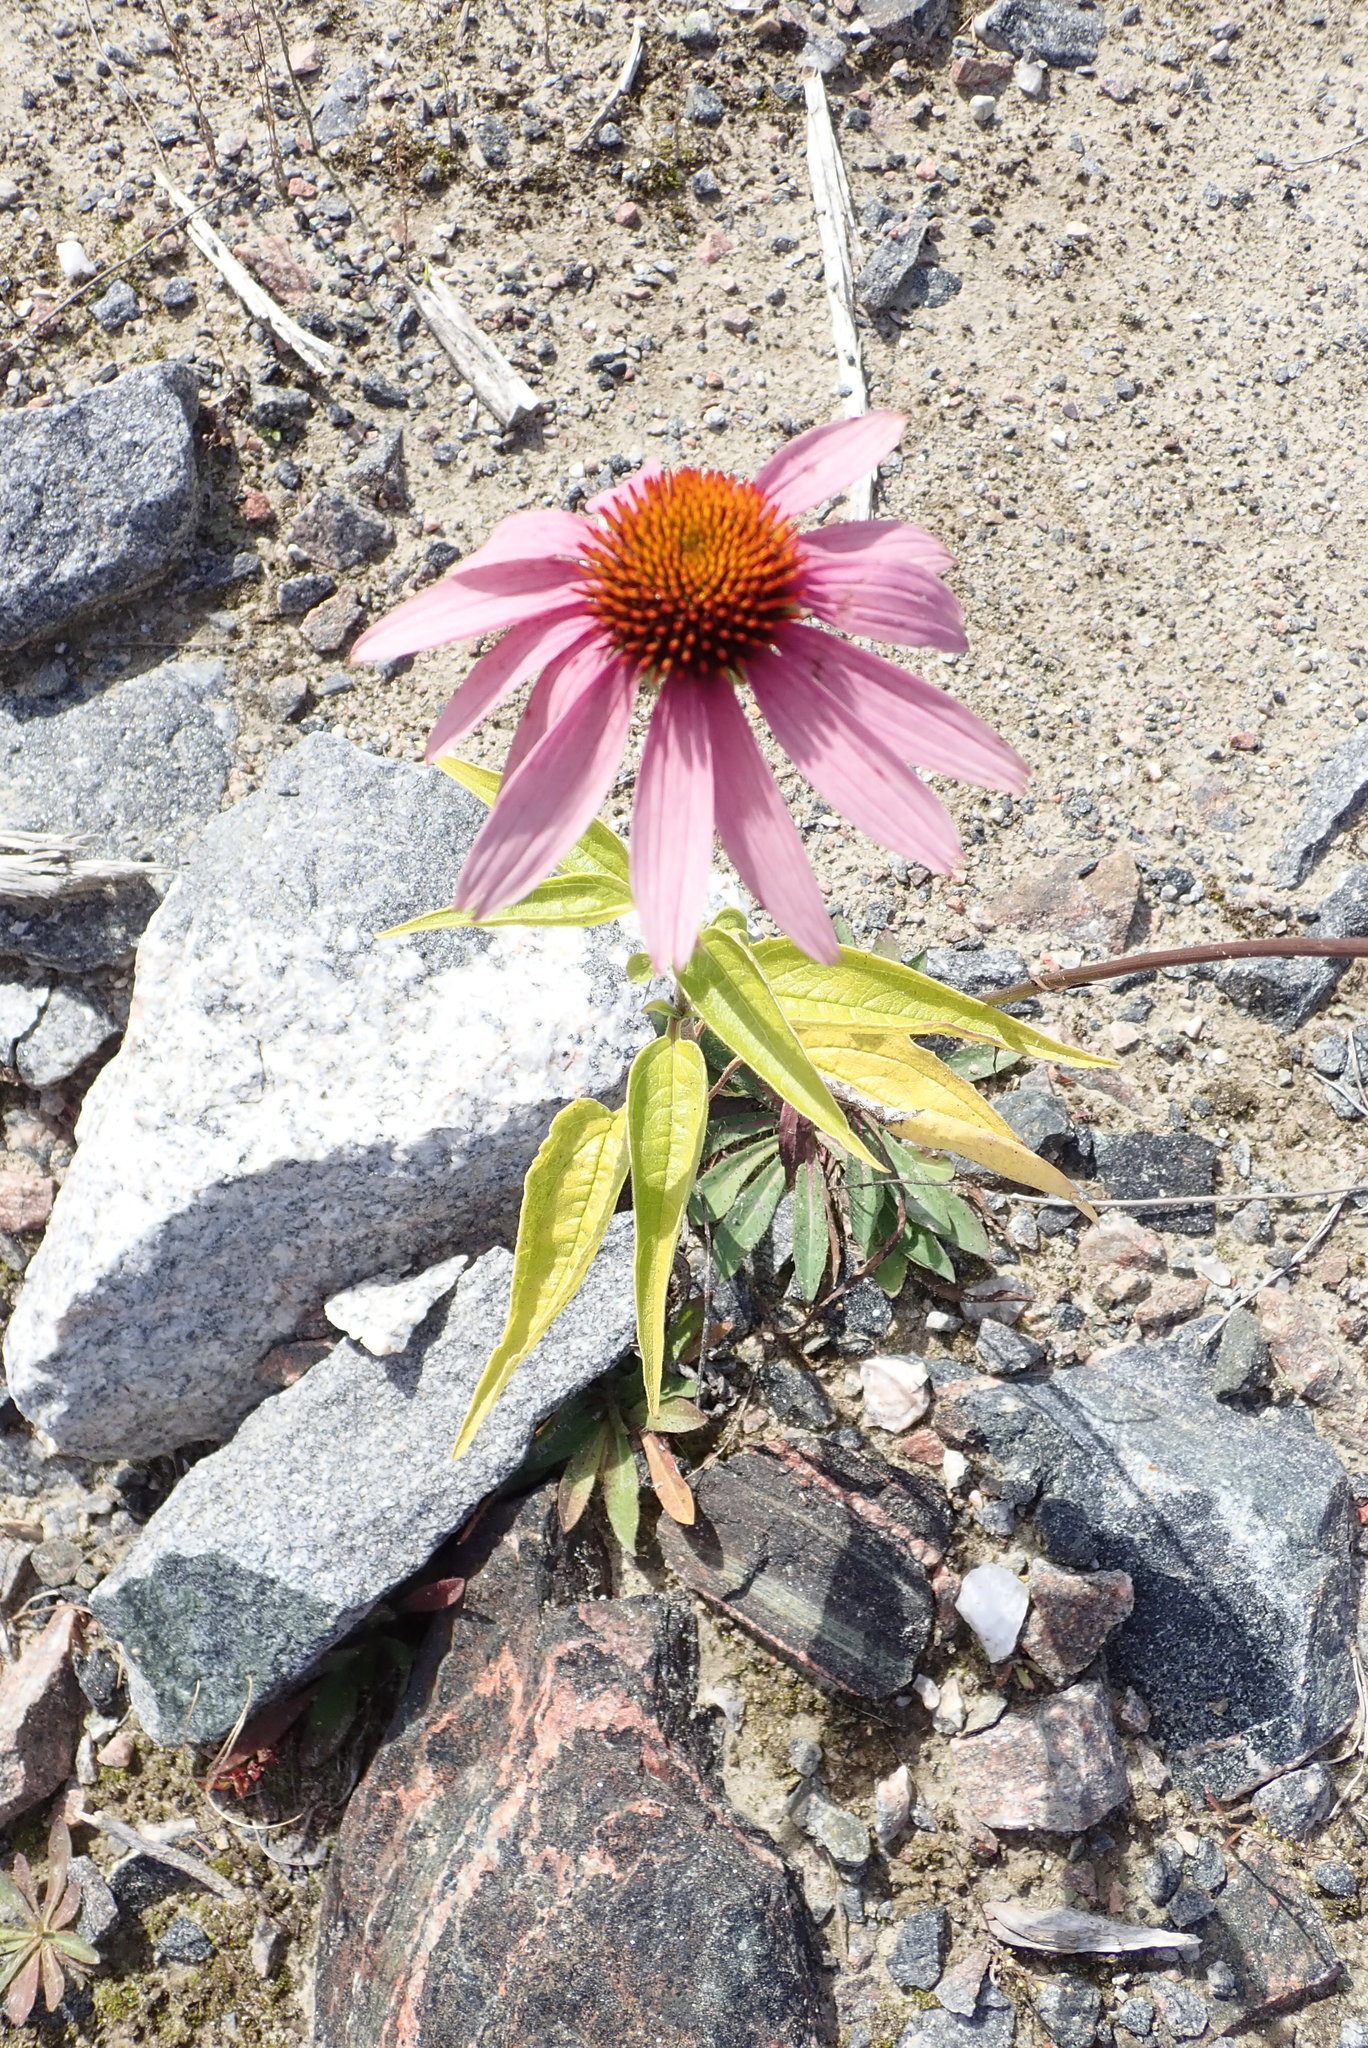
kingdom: Plantae
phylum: Tracheophyta
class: Magnoliopsida
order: Asterales
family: Asteraceae
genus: Echinacea
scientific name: Echinacea purpurea
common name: Broad-leaved purple coneflower
